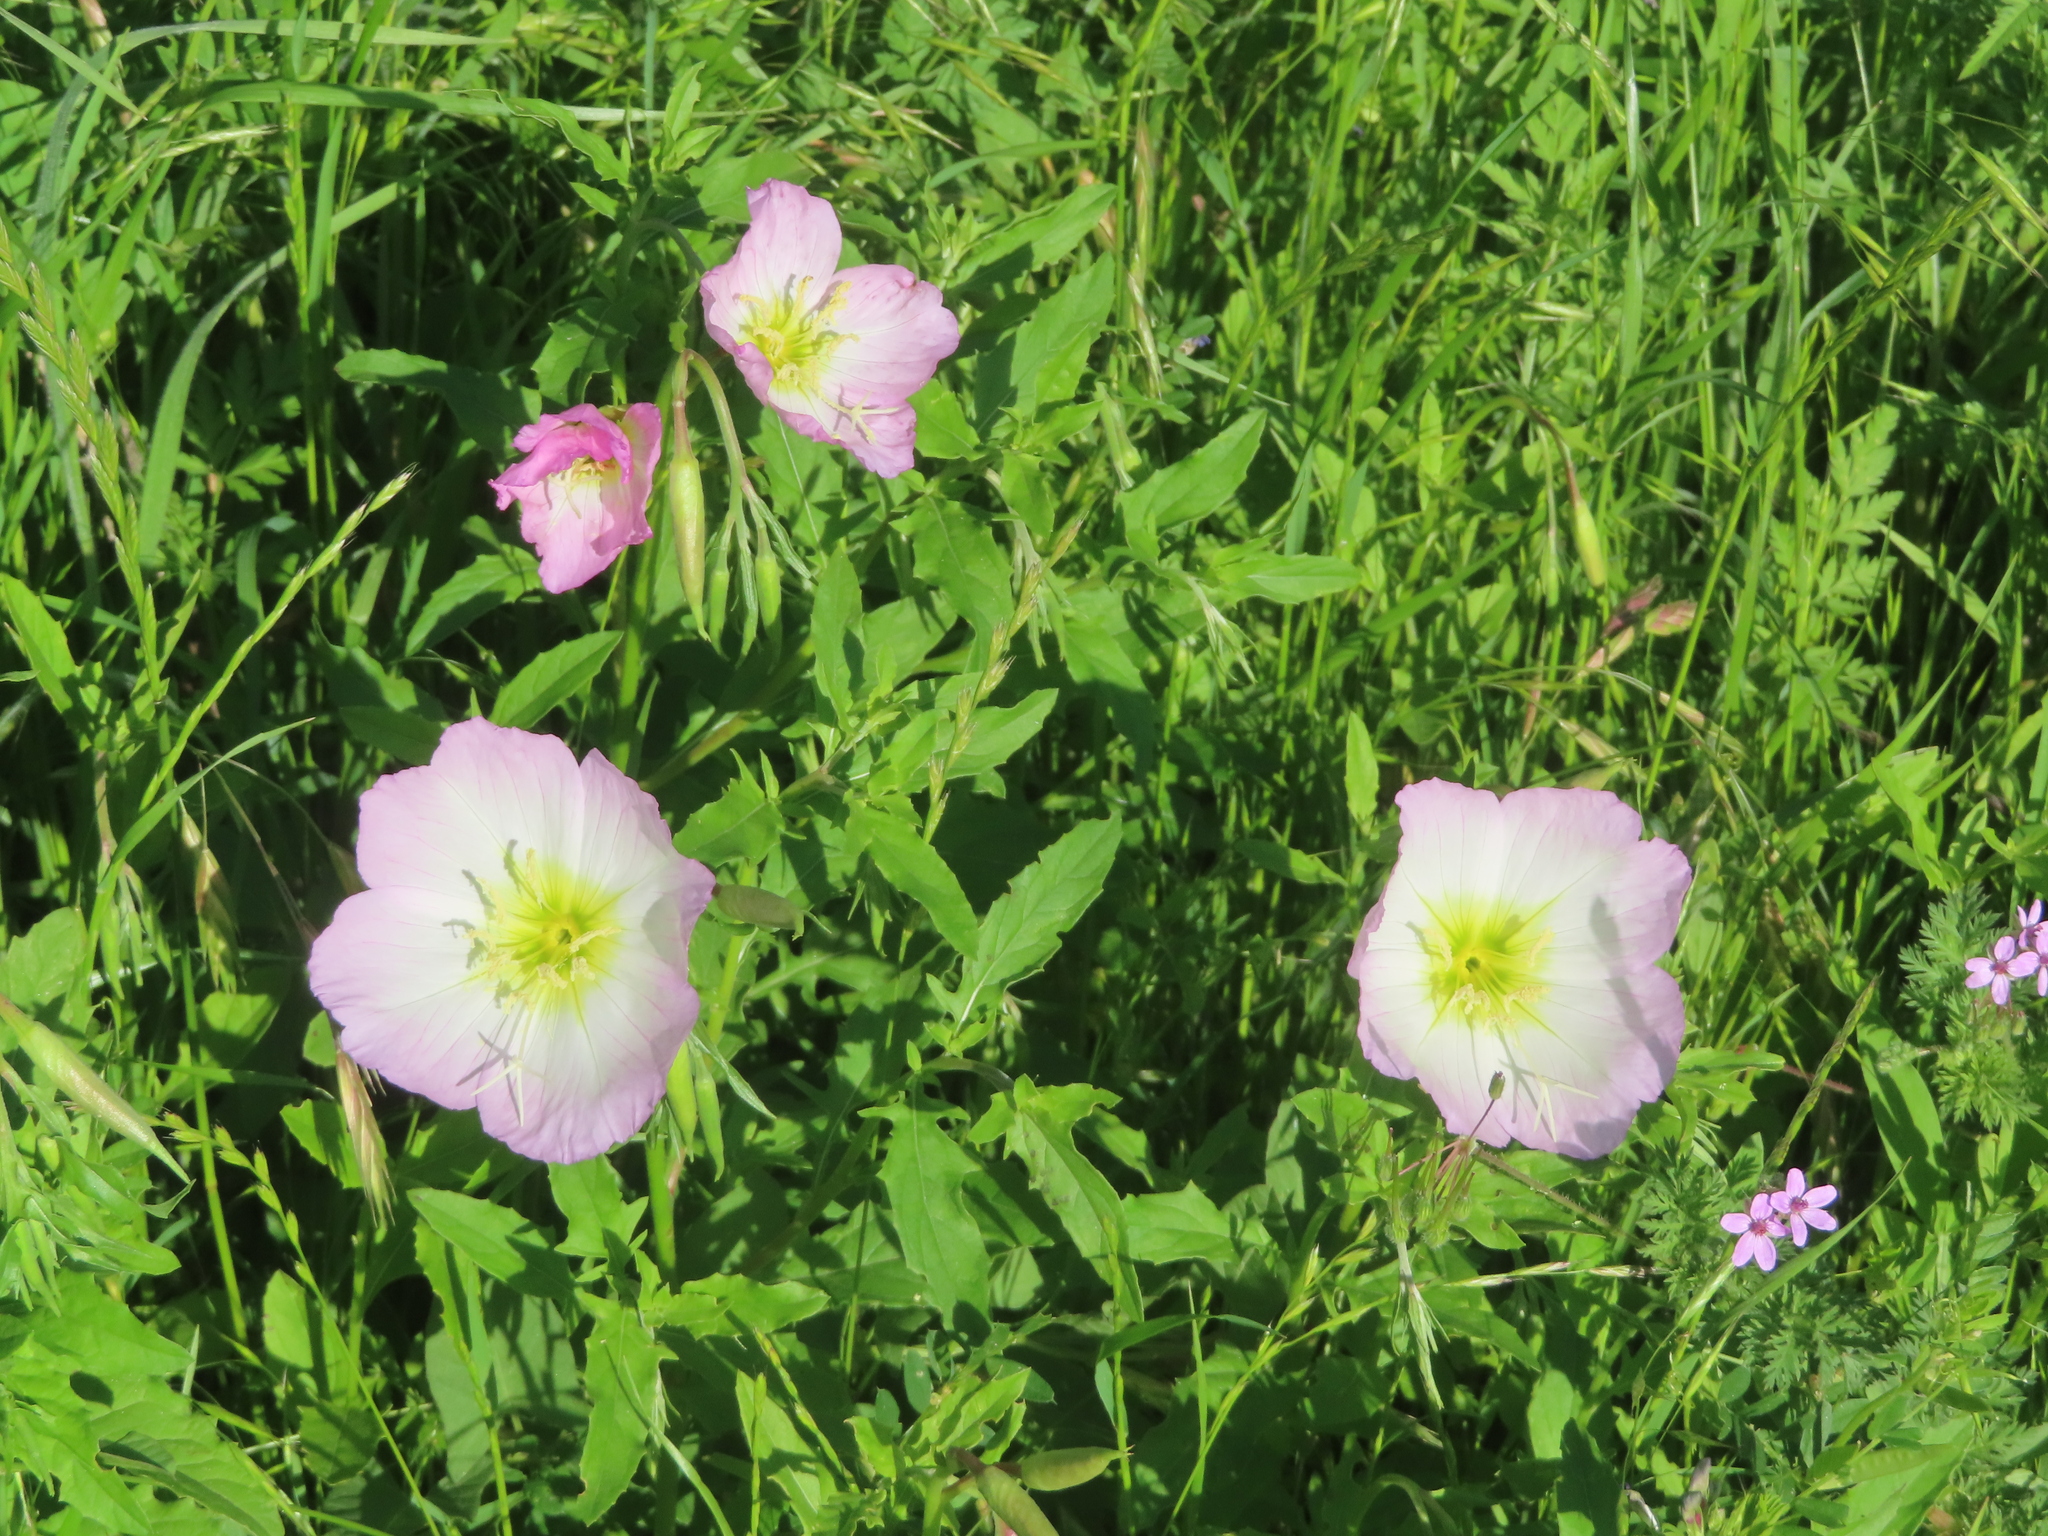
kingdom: Plantae
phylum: Tracheophyta
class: Magnoliopsida
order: Myrtales
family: Onagraceae
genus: Oenothera
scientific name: Oenothera speciosa
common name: White evening-primrose
